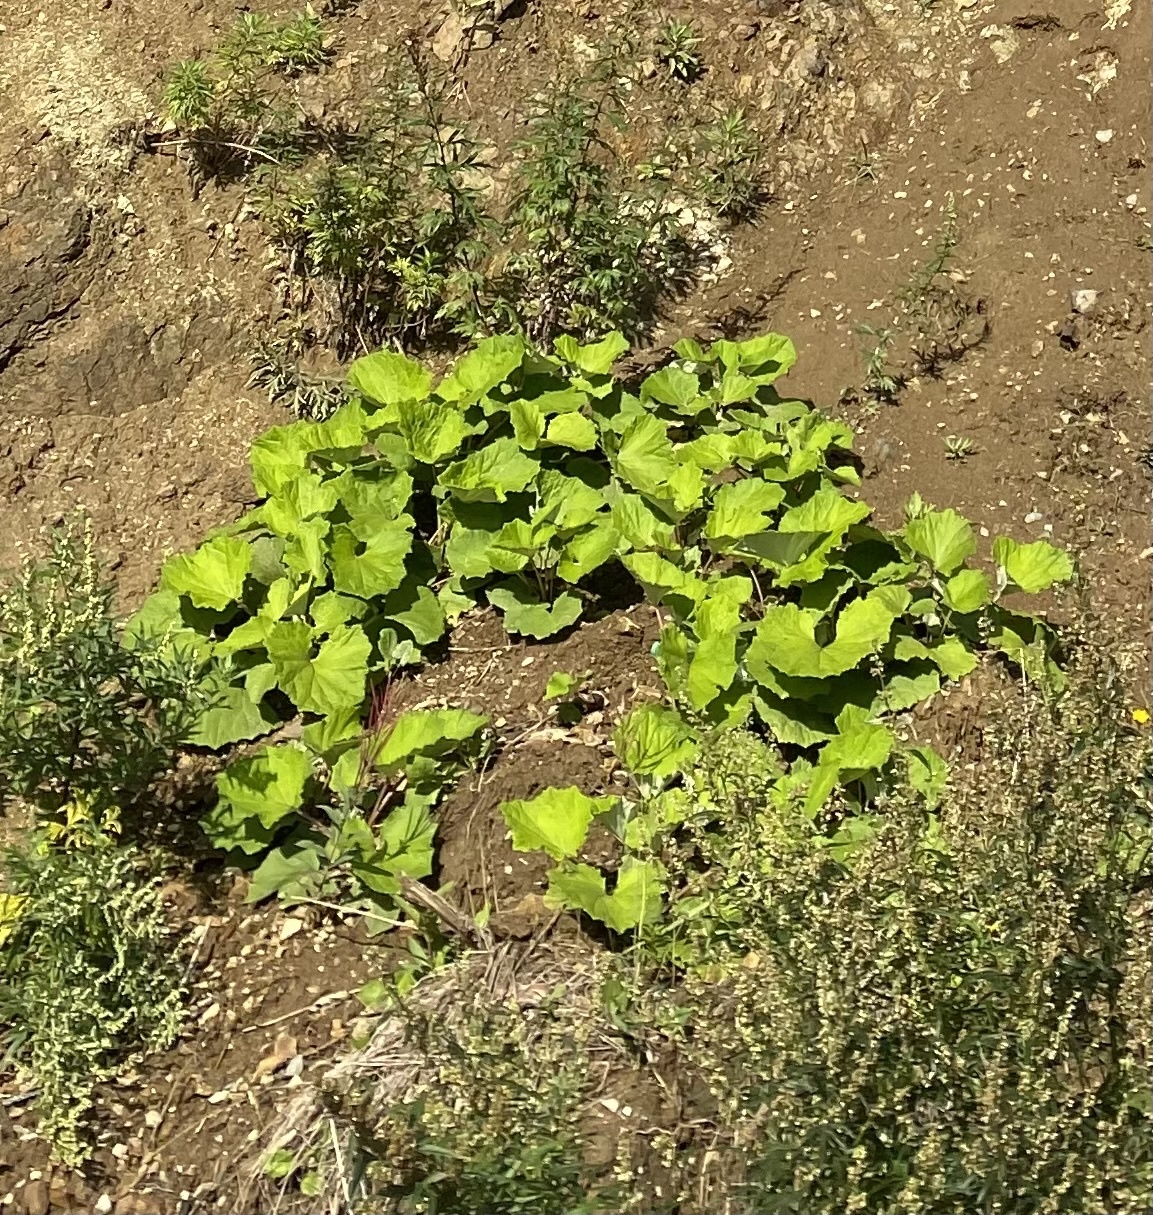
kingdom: Plantae
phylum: Tracheophyta
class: Magnoliopsida
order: Asterales
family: Asteraceae
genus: Tussilago
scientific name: Tussilago farfara
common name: Coltsfoot
